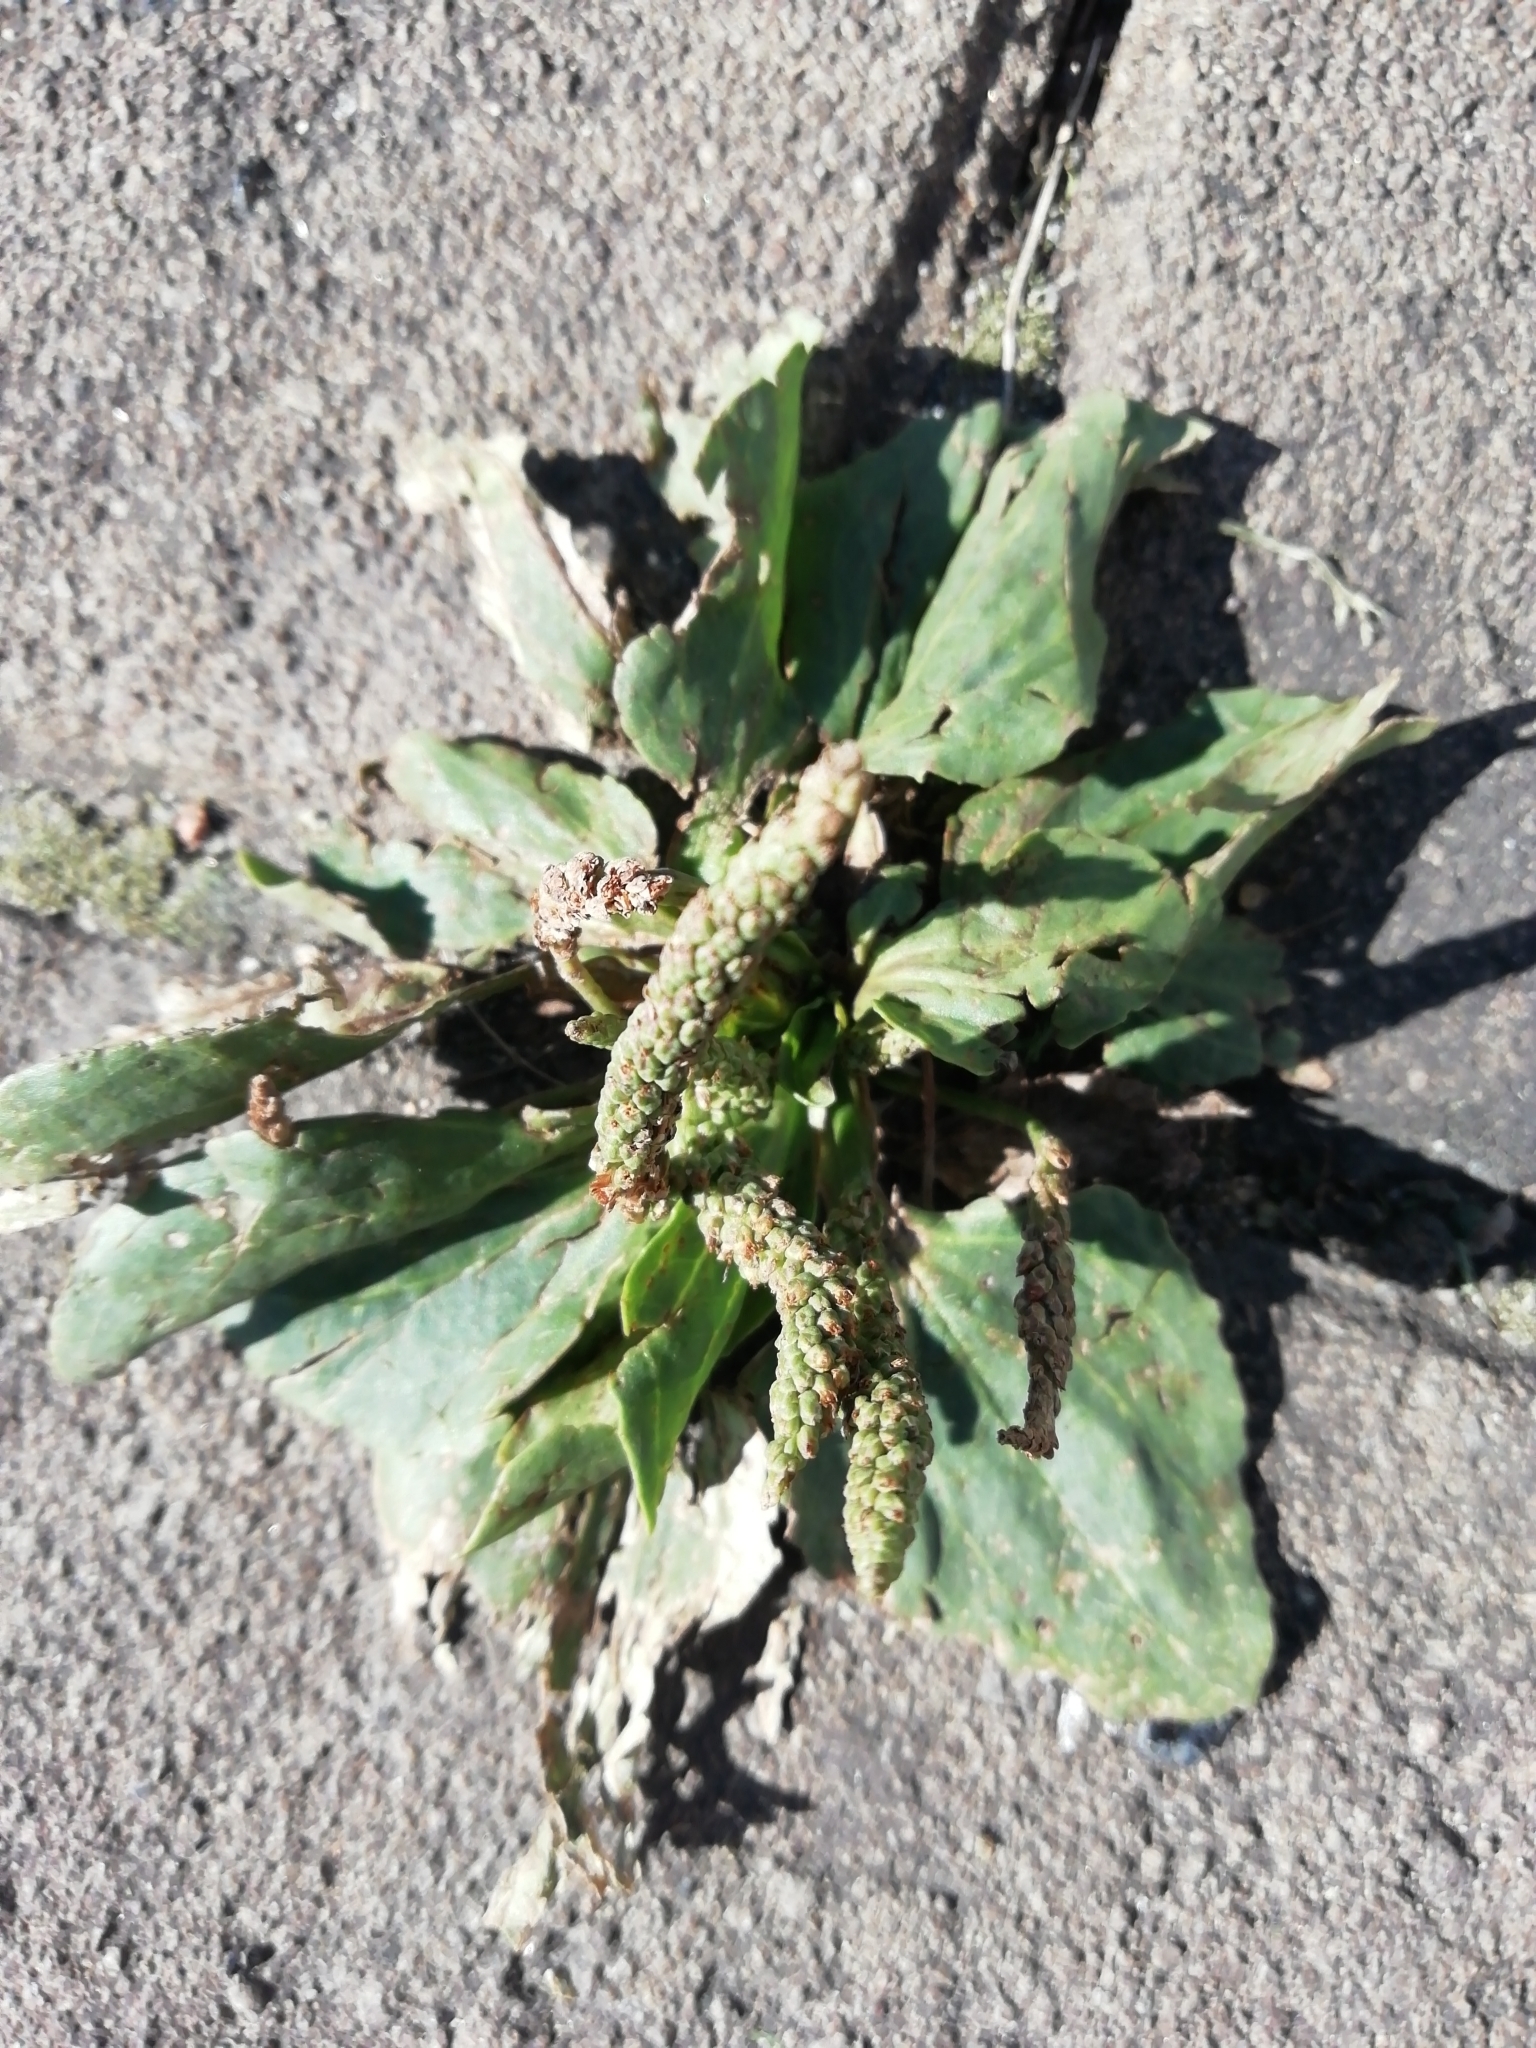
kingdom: Plantae
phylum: Tracheophyta
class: Magnoliopsida
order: Lamiales
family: Plantaginaceae
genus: Plantago
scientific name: Plantago major
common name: Common plantain
